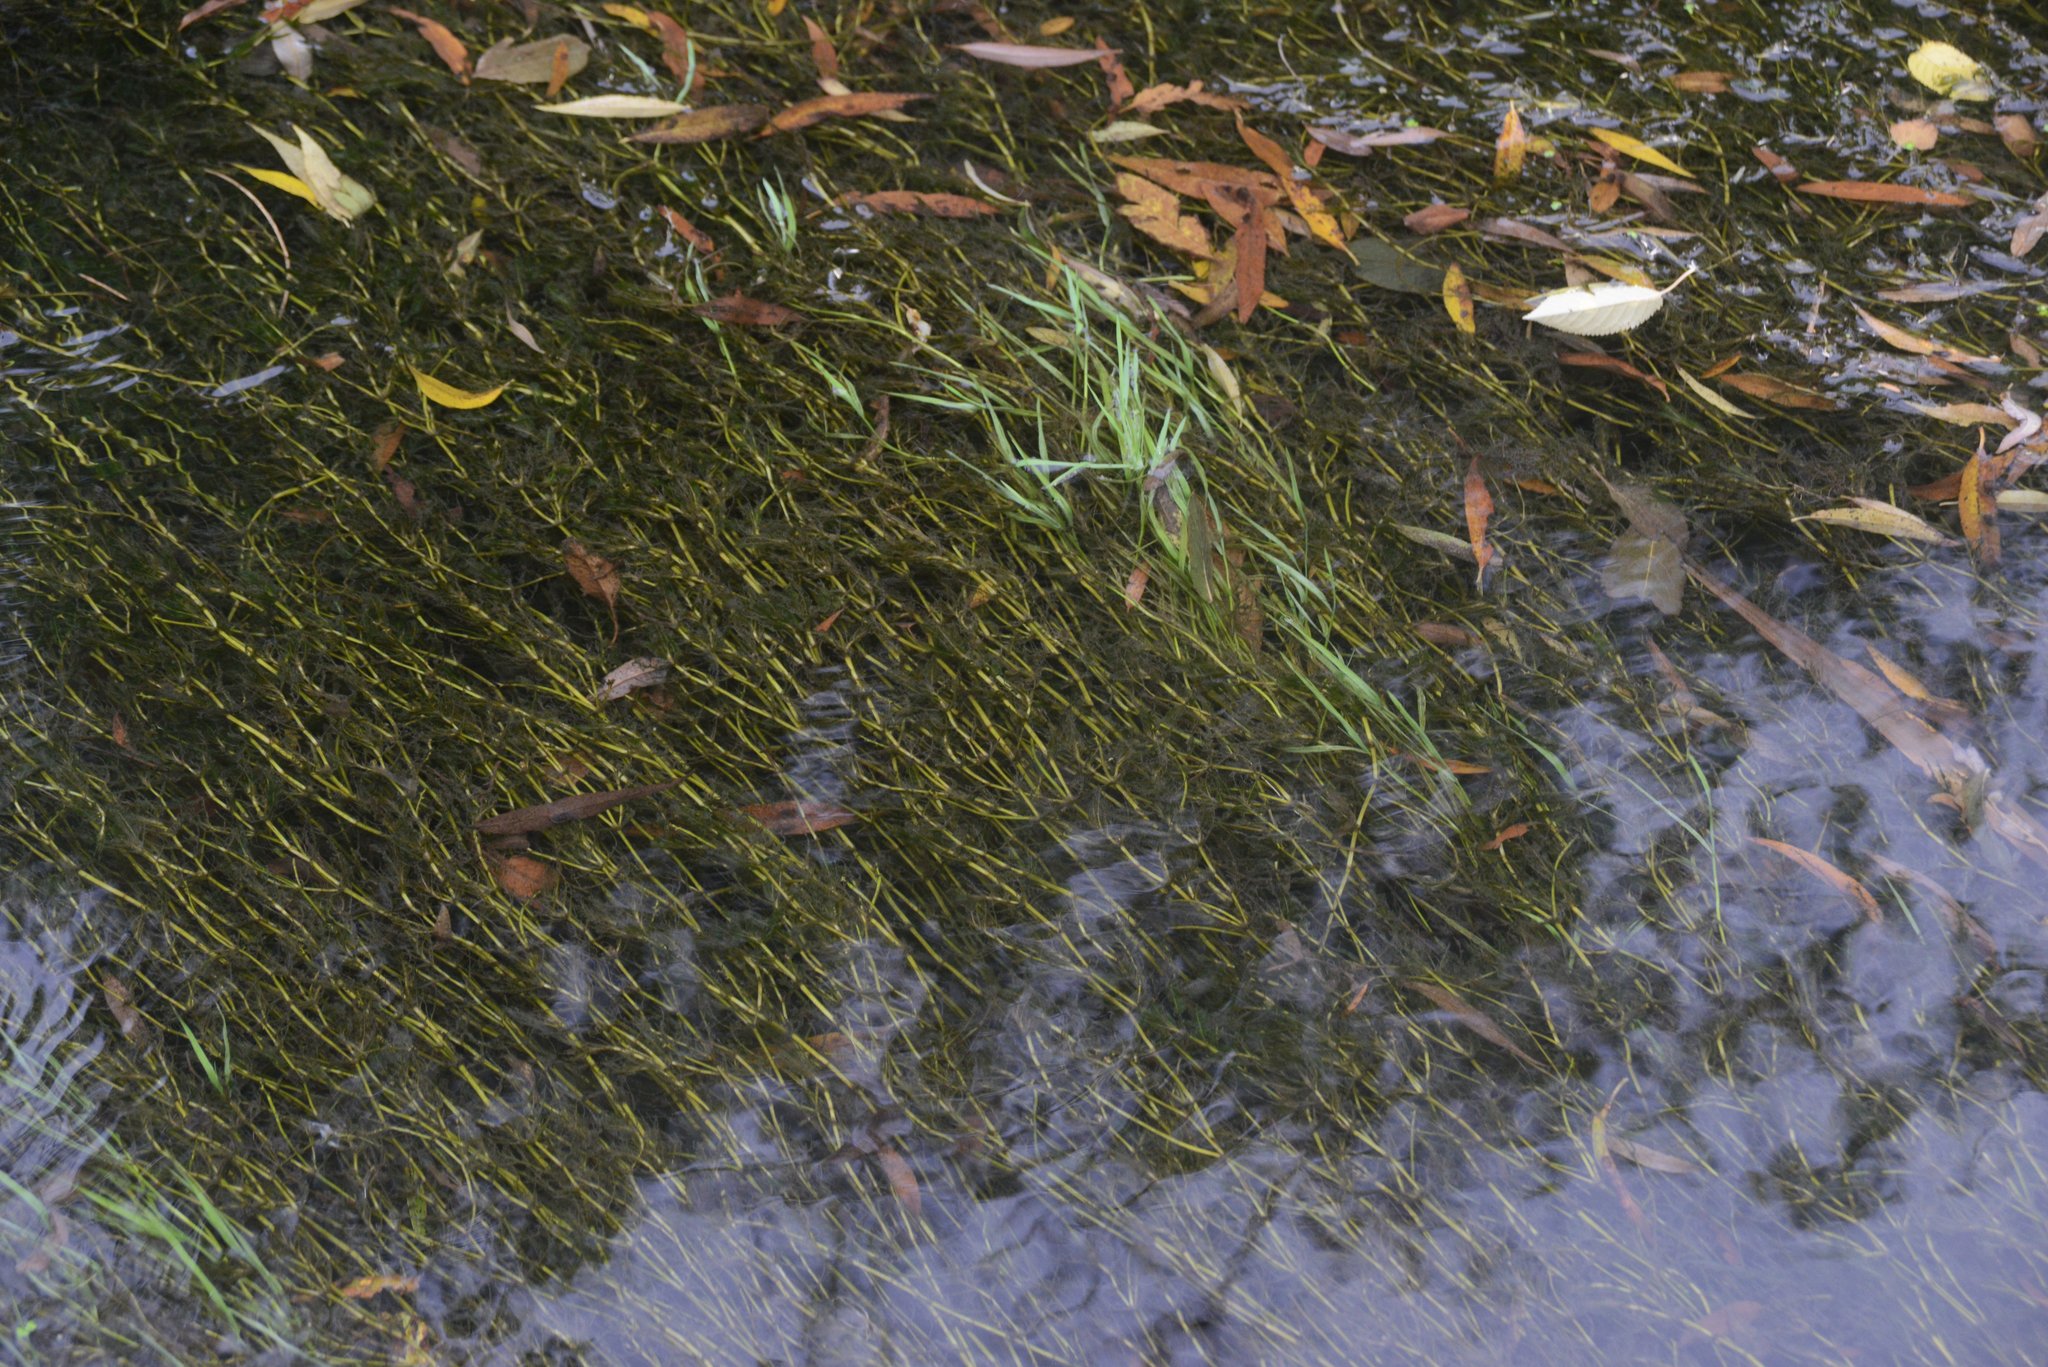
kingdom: Plantae
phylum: Tracheophyta
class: Liliopsida
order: Alismatales
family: Potamogetonaceae
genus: Potamogeton
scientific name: Potamogeton crispus
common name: Curled pondweed
